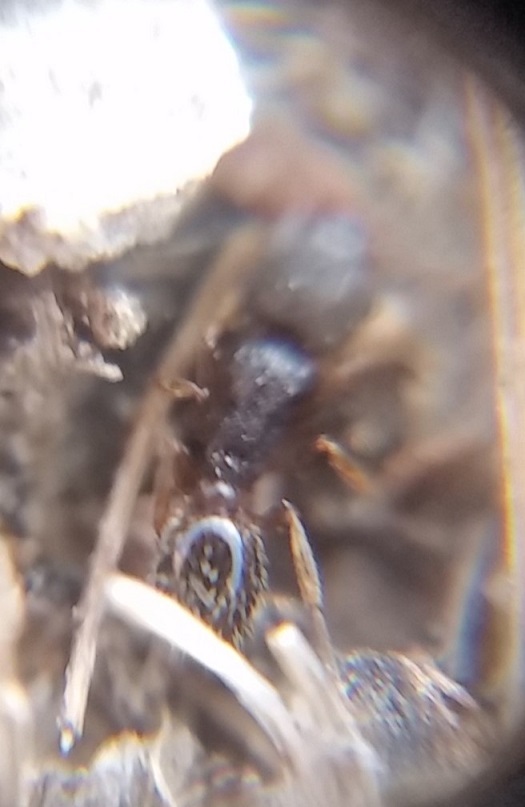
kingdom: Animalia
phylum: Arthropoda
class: Insecta
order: Hymenoptera
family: Formicidae
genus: Tetramorium
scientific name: Tetramorium immigrans
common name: Pavement ant
